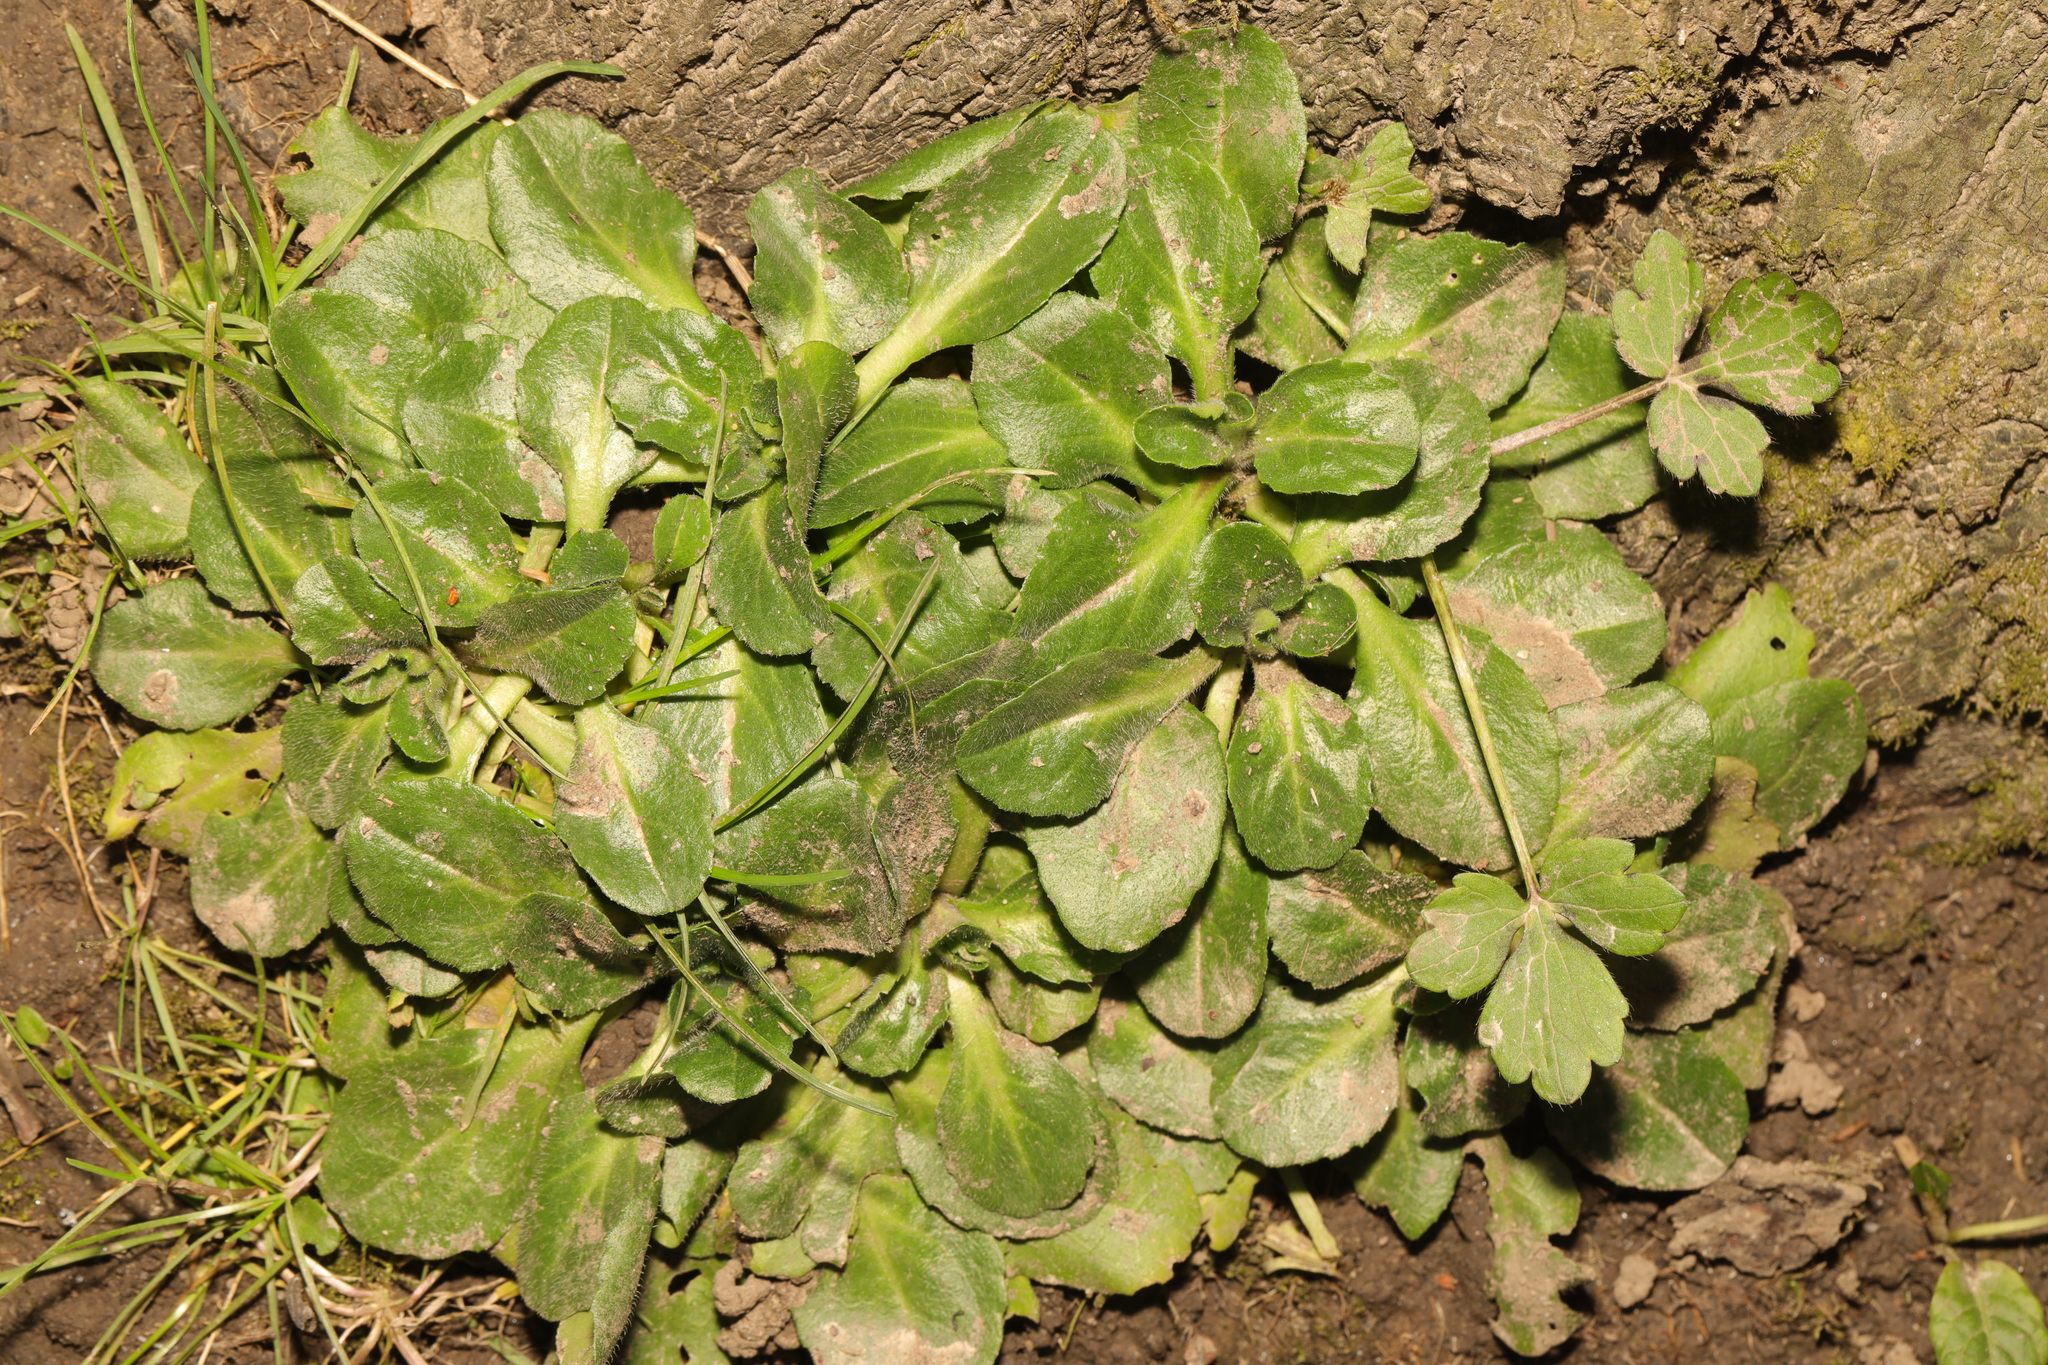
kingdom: Plantae
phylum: Tracheophyta
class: Magnoliopsida
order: Asterales
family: Asteraceae
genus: Bellis
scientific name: Bellis perennis
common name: Lawndaisy
